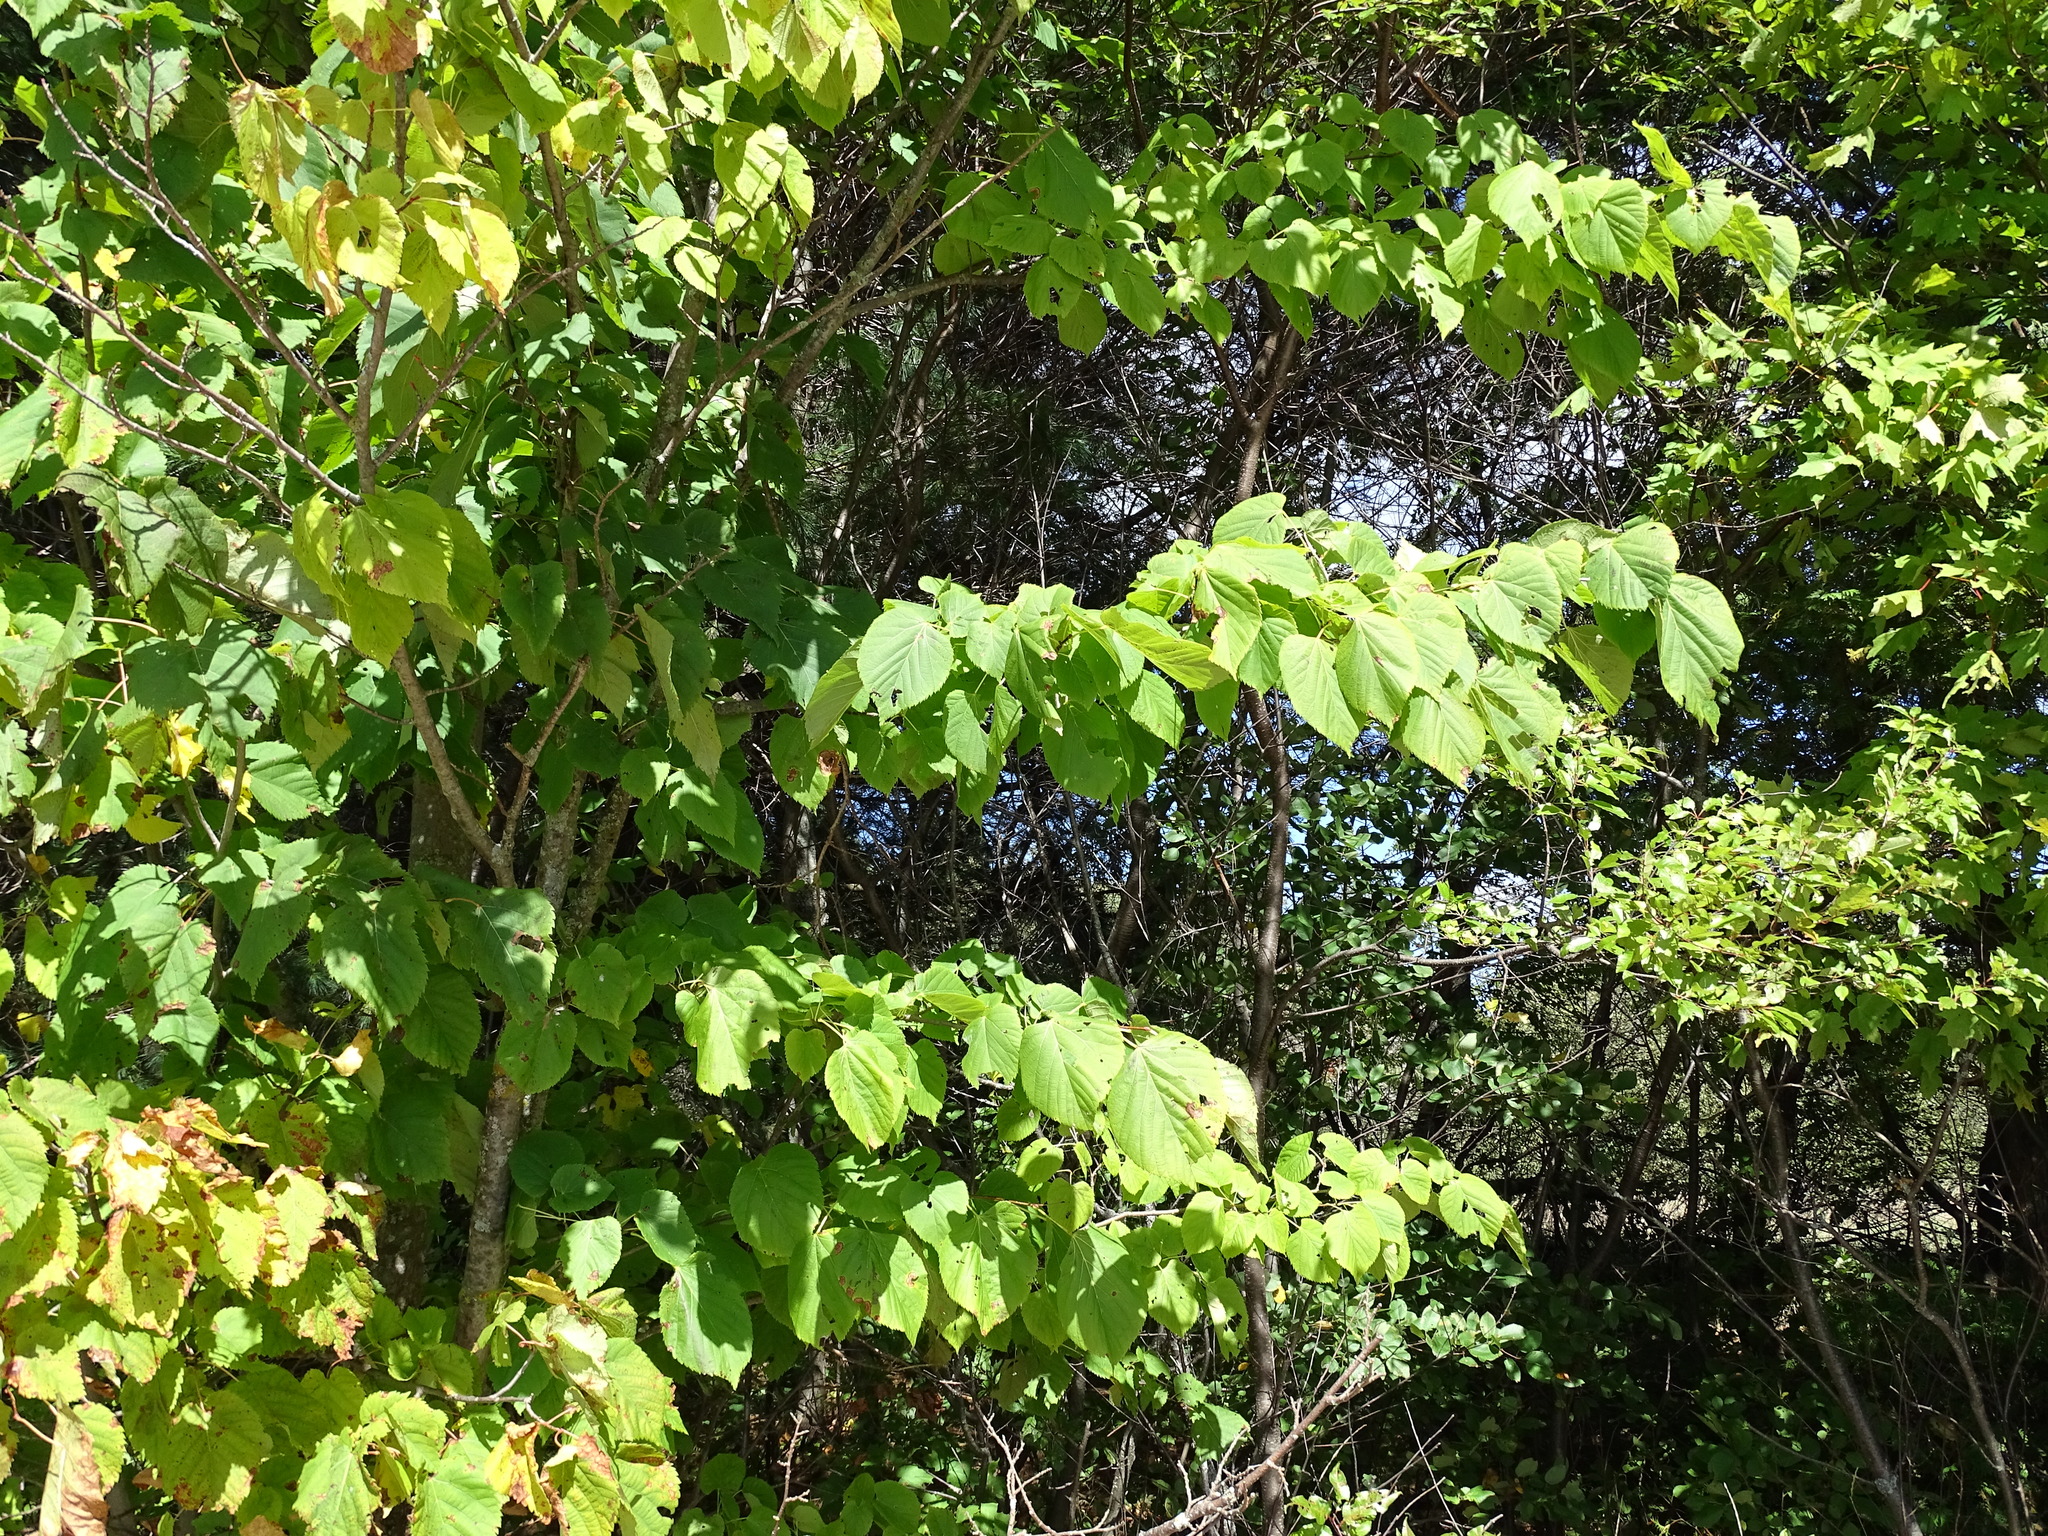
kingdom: Plantae
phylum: Tracheophyta
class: Magnoliopsida
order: Malvales
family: Malvaceae
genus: Tilia
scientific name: Tilia americana
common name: Basswood
